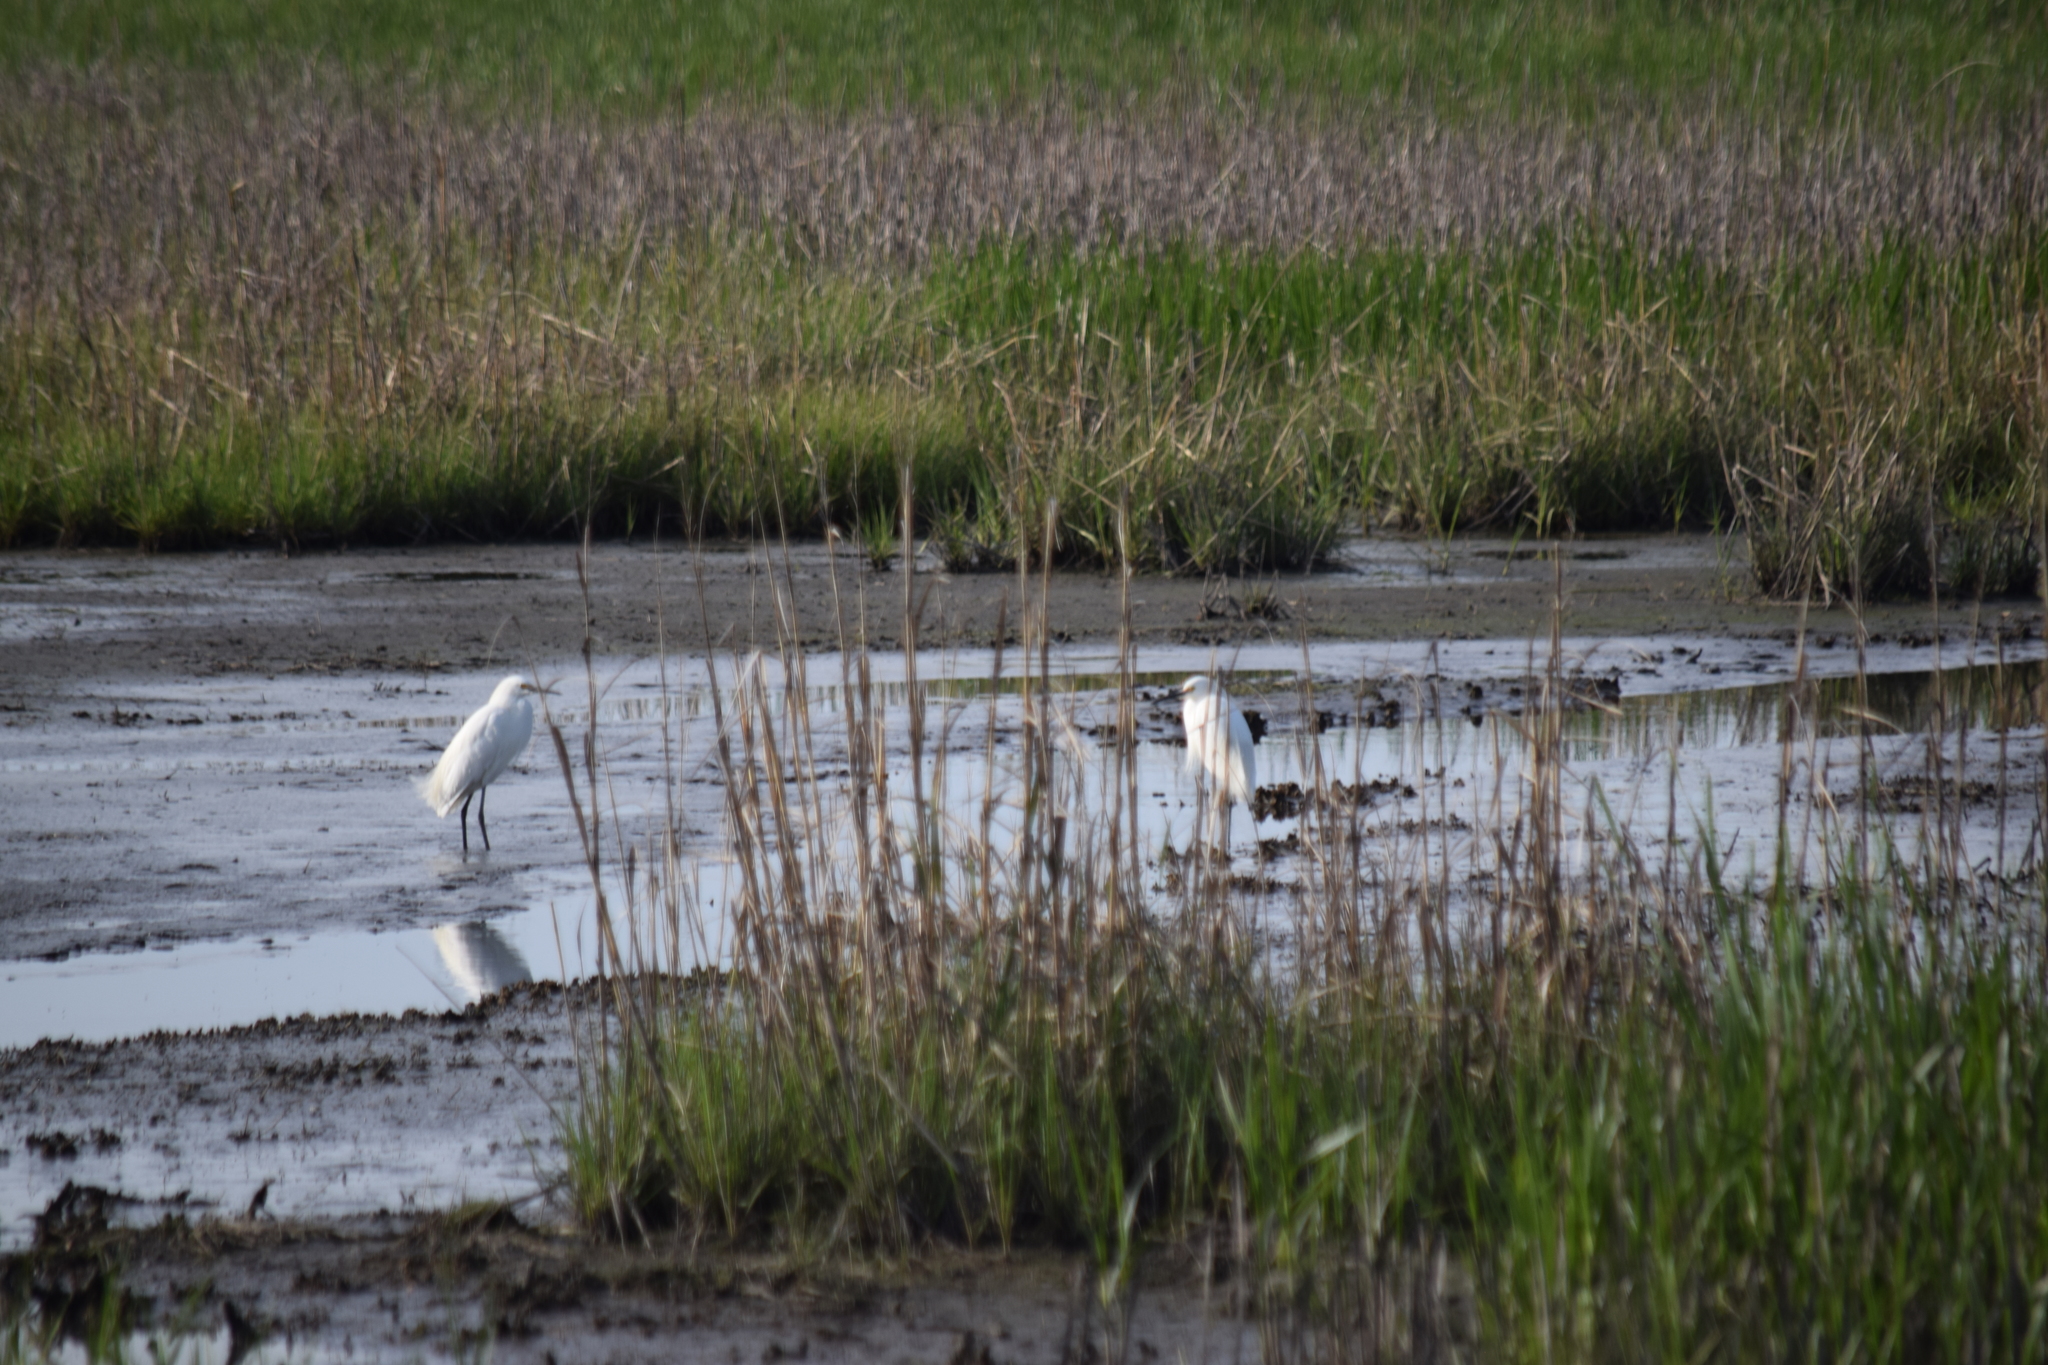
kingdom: Animalia
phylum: Chordata
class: Aves
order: Pelecaniformes
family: Ardeidae
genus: Egretta
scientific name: Egretta thula
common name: Snowy egret
